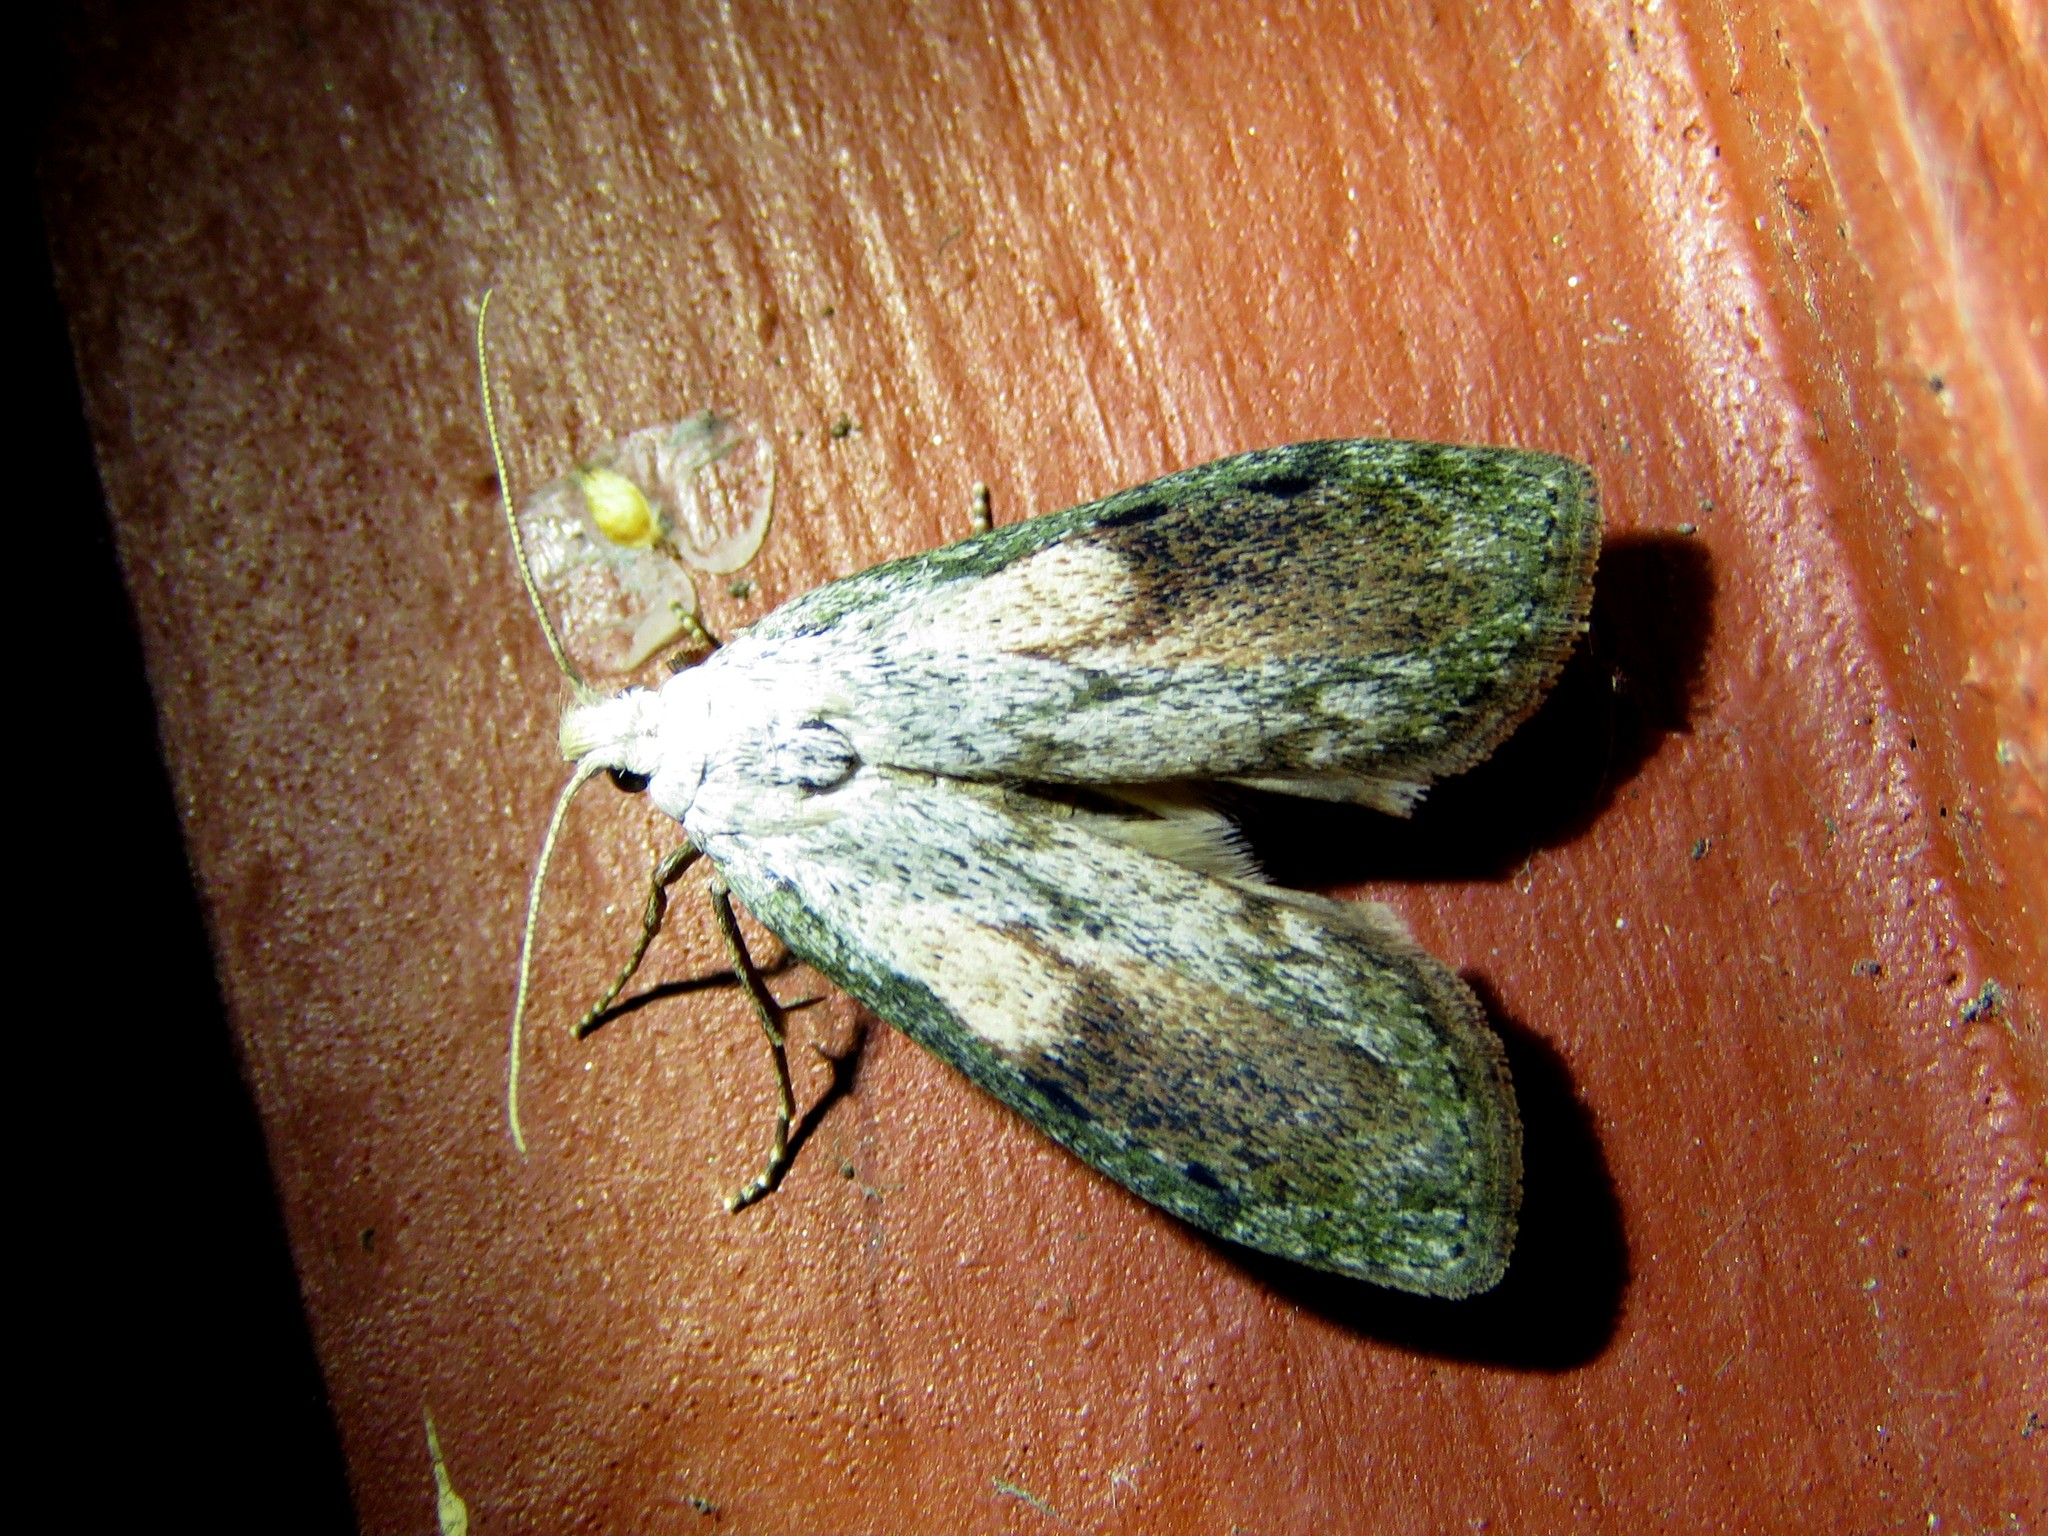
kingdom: Animalia
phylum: Arthropoda
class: Insecta
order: Lepidoptera
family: Pyralidae
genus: Aphomia
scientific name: Aphomia sociella
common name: Bee moth
